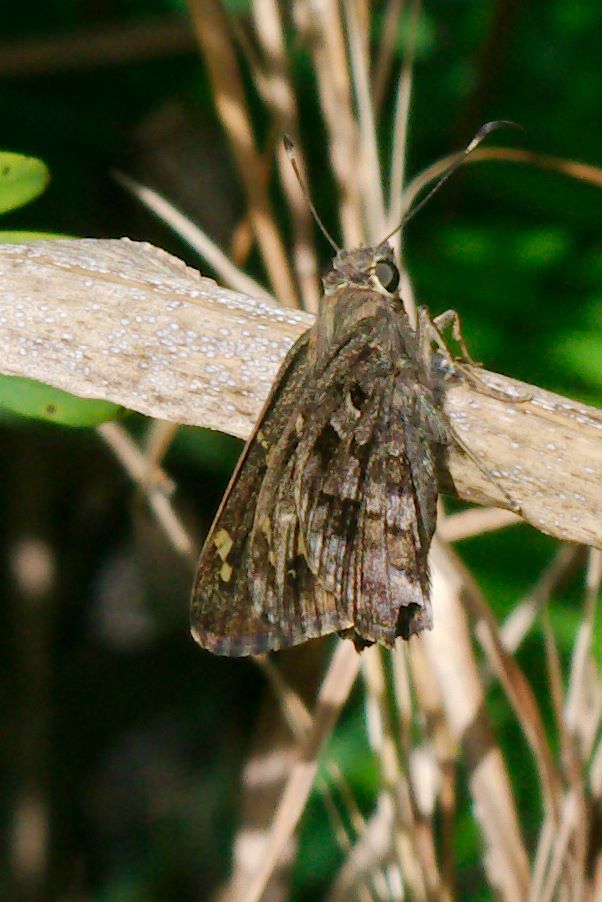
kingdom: Animalia
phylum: Arthropoda
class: Insecta
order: Lepidoptera
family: Hesperiidae
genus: Thorybes
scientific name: Thorybes
